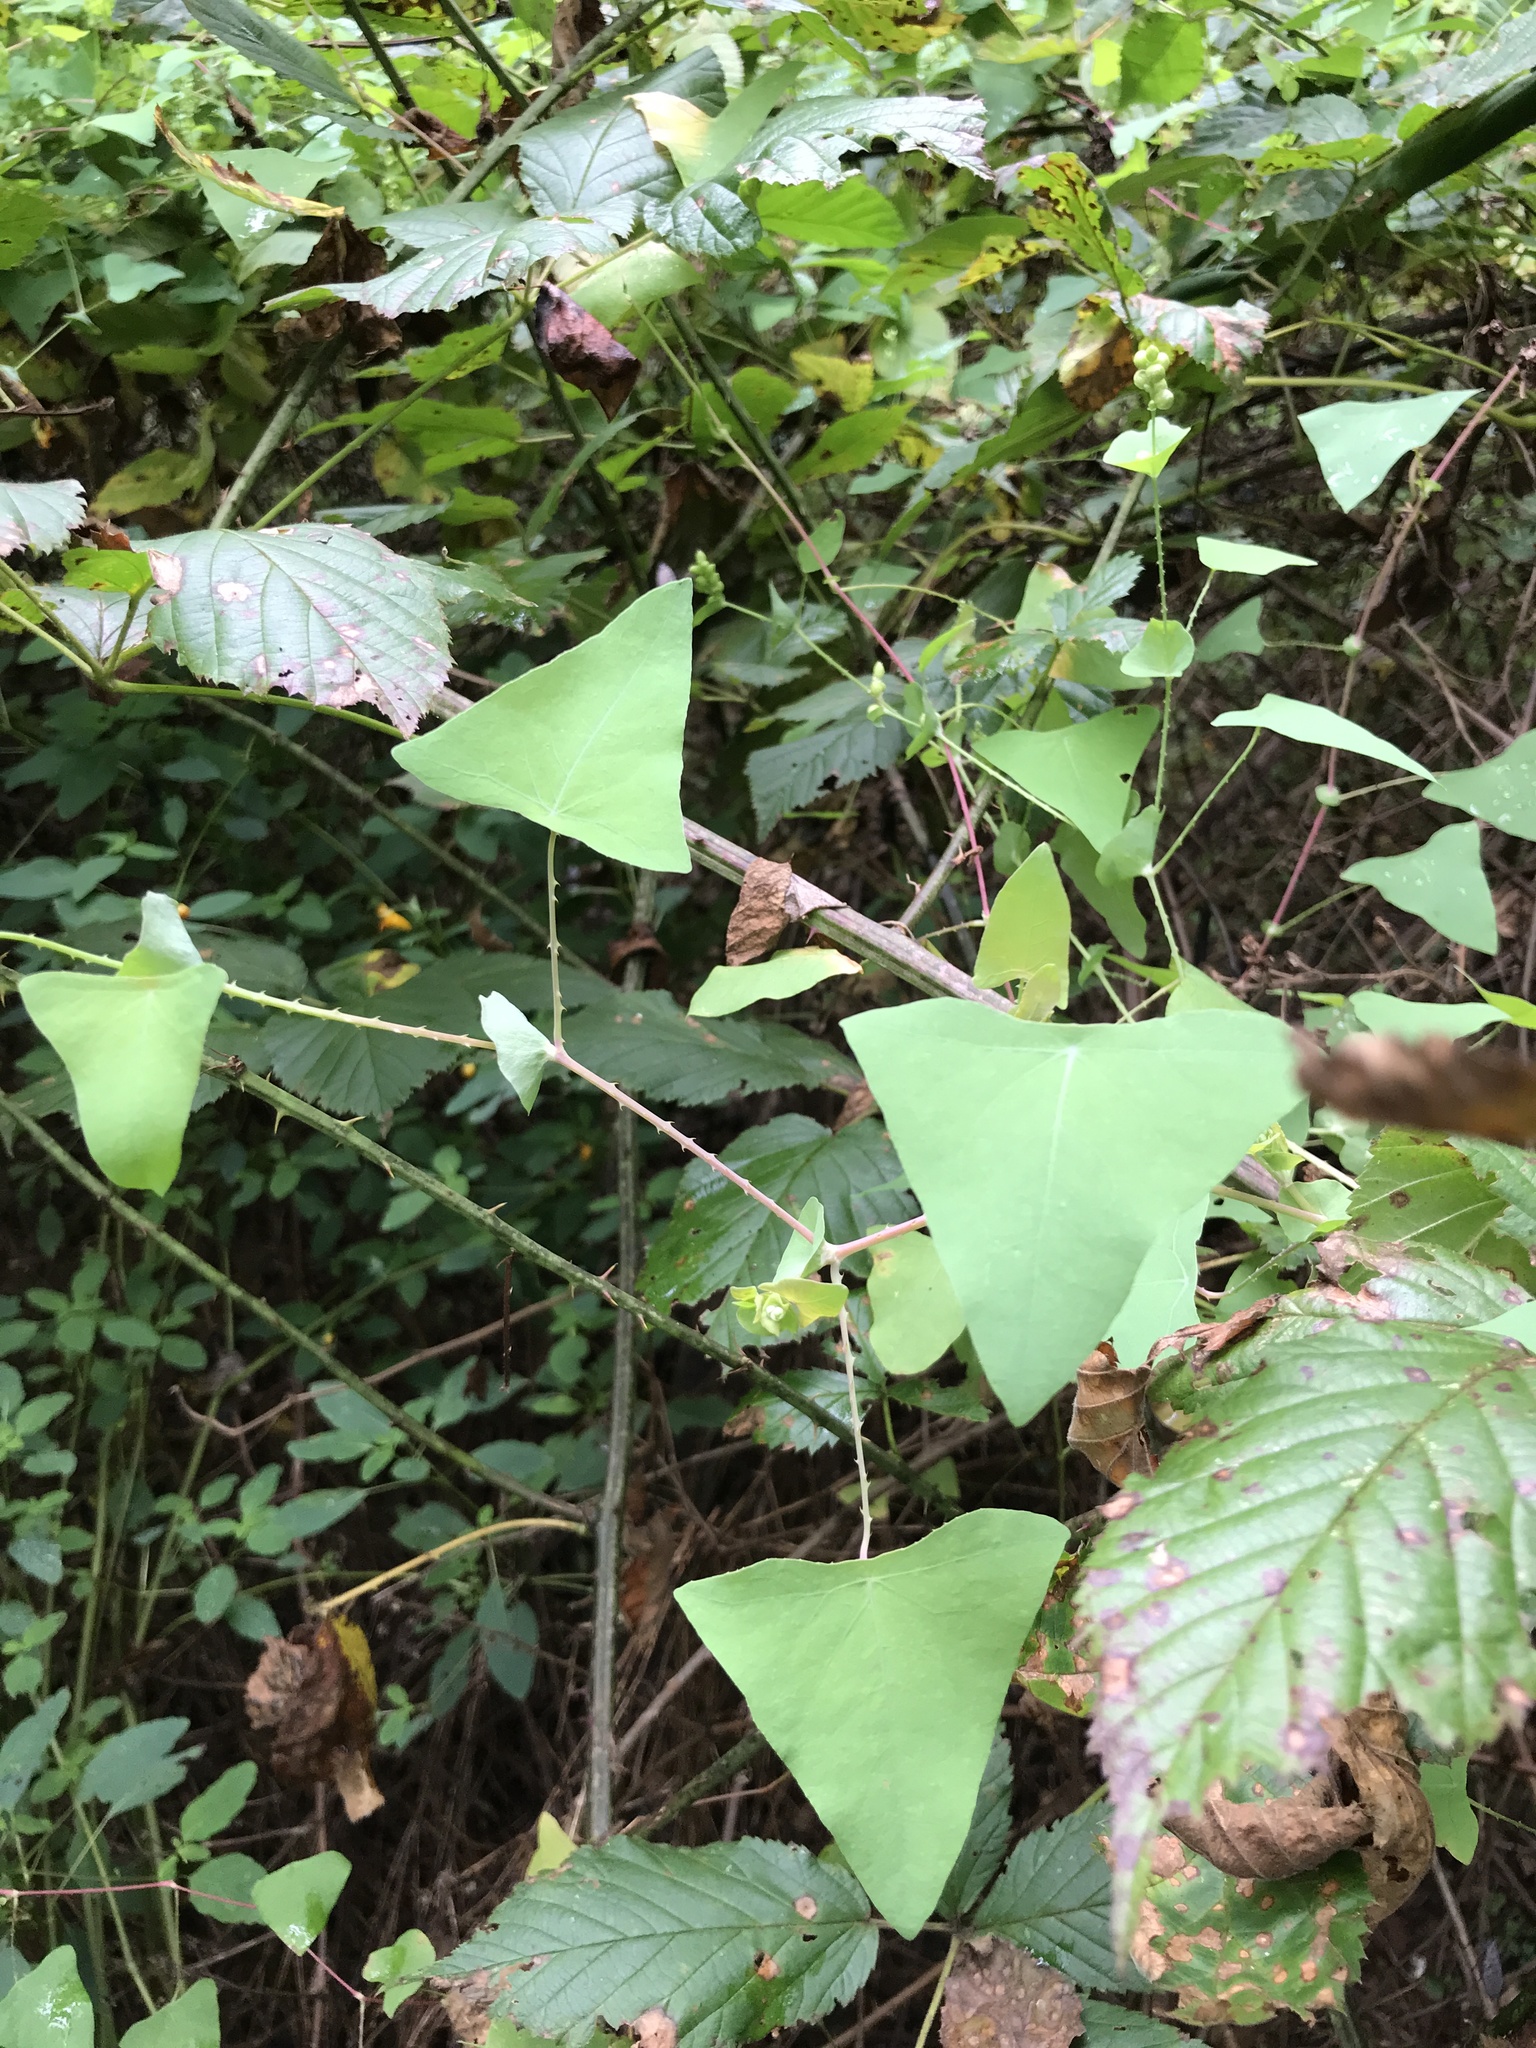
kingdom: Plantae
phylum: Tracheophyta
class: Magnoliopsida
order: Caryophyllales
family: Polygonaceae
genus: Persicaria
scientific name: Persicaria perfoliata
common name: Asiatic tearthumb
